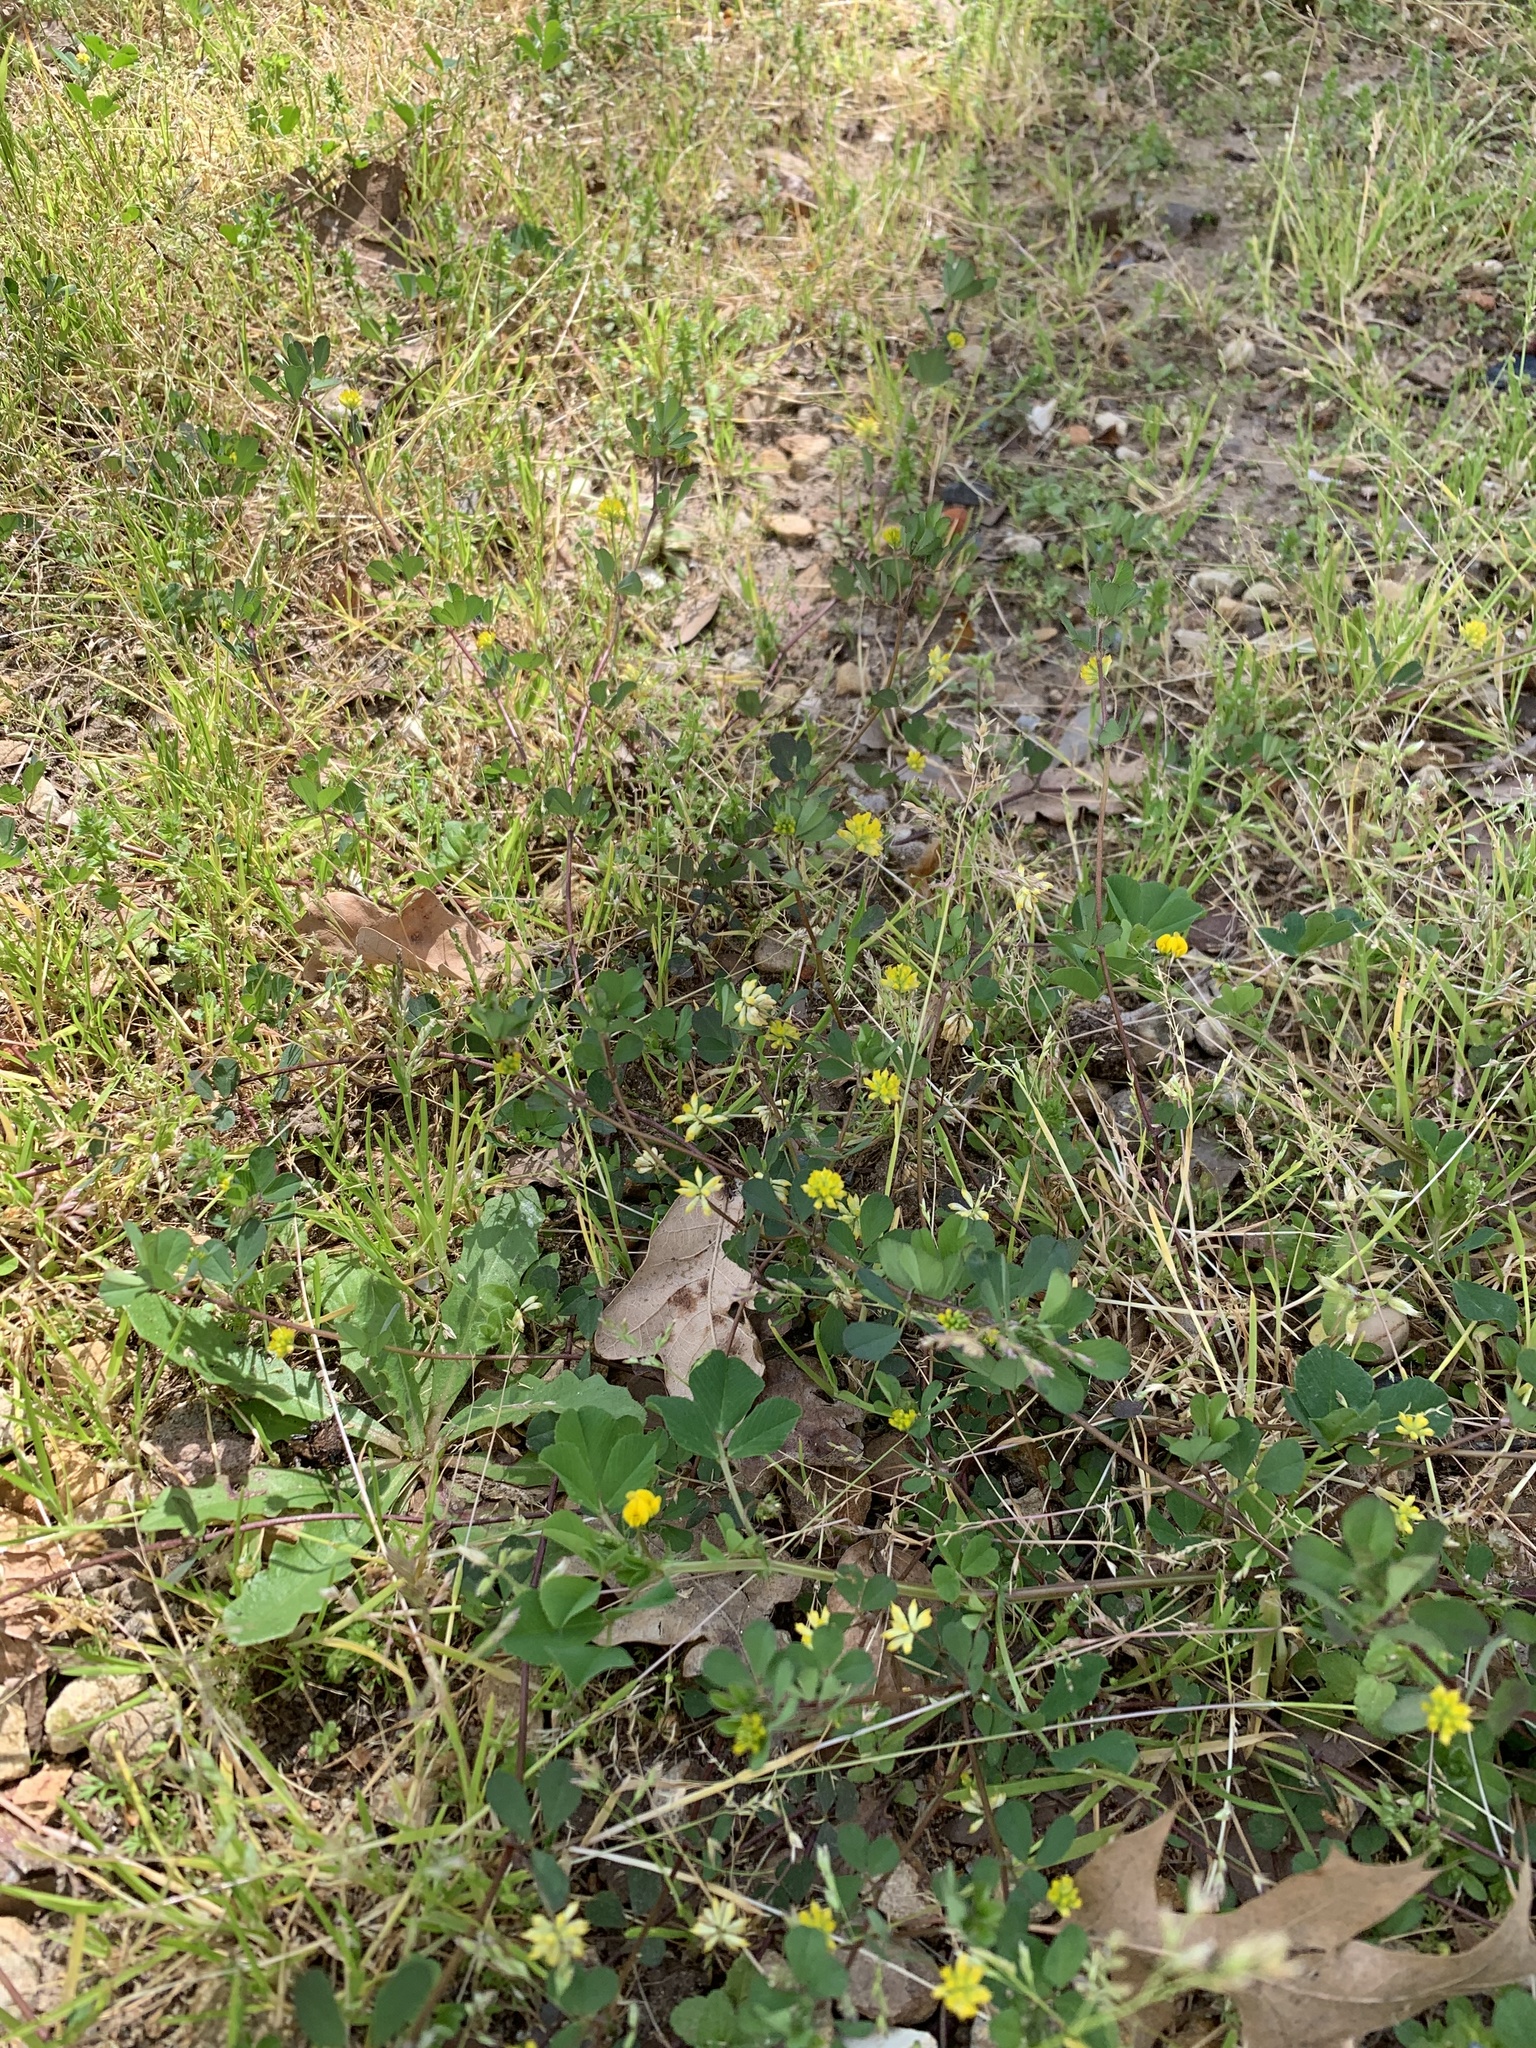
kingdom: Plantae
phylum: Tracheophyta
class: Magnoliopsida
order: Fabales
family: Fabaceae
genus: Medicago
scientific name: Medicago polymorpha
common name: Burclover
